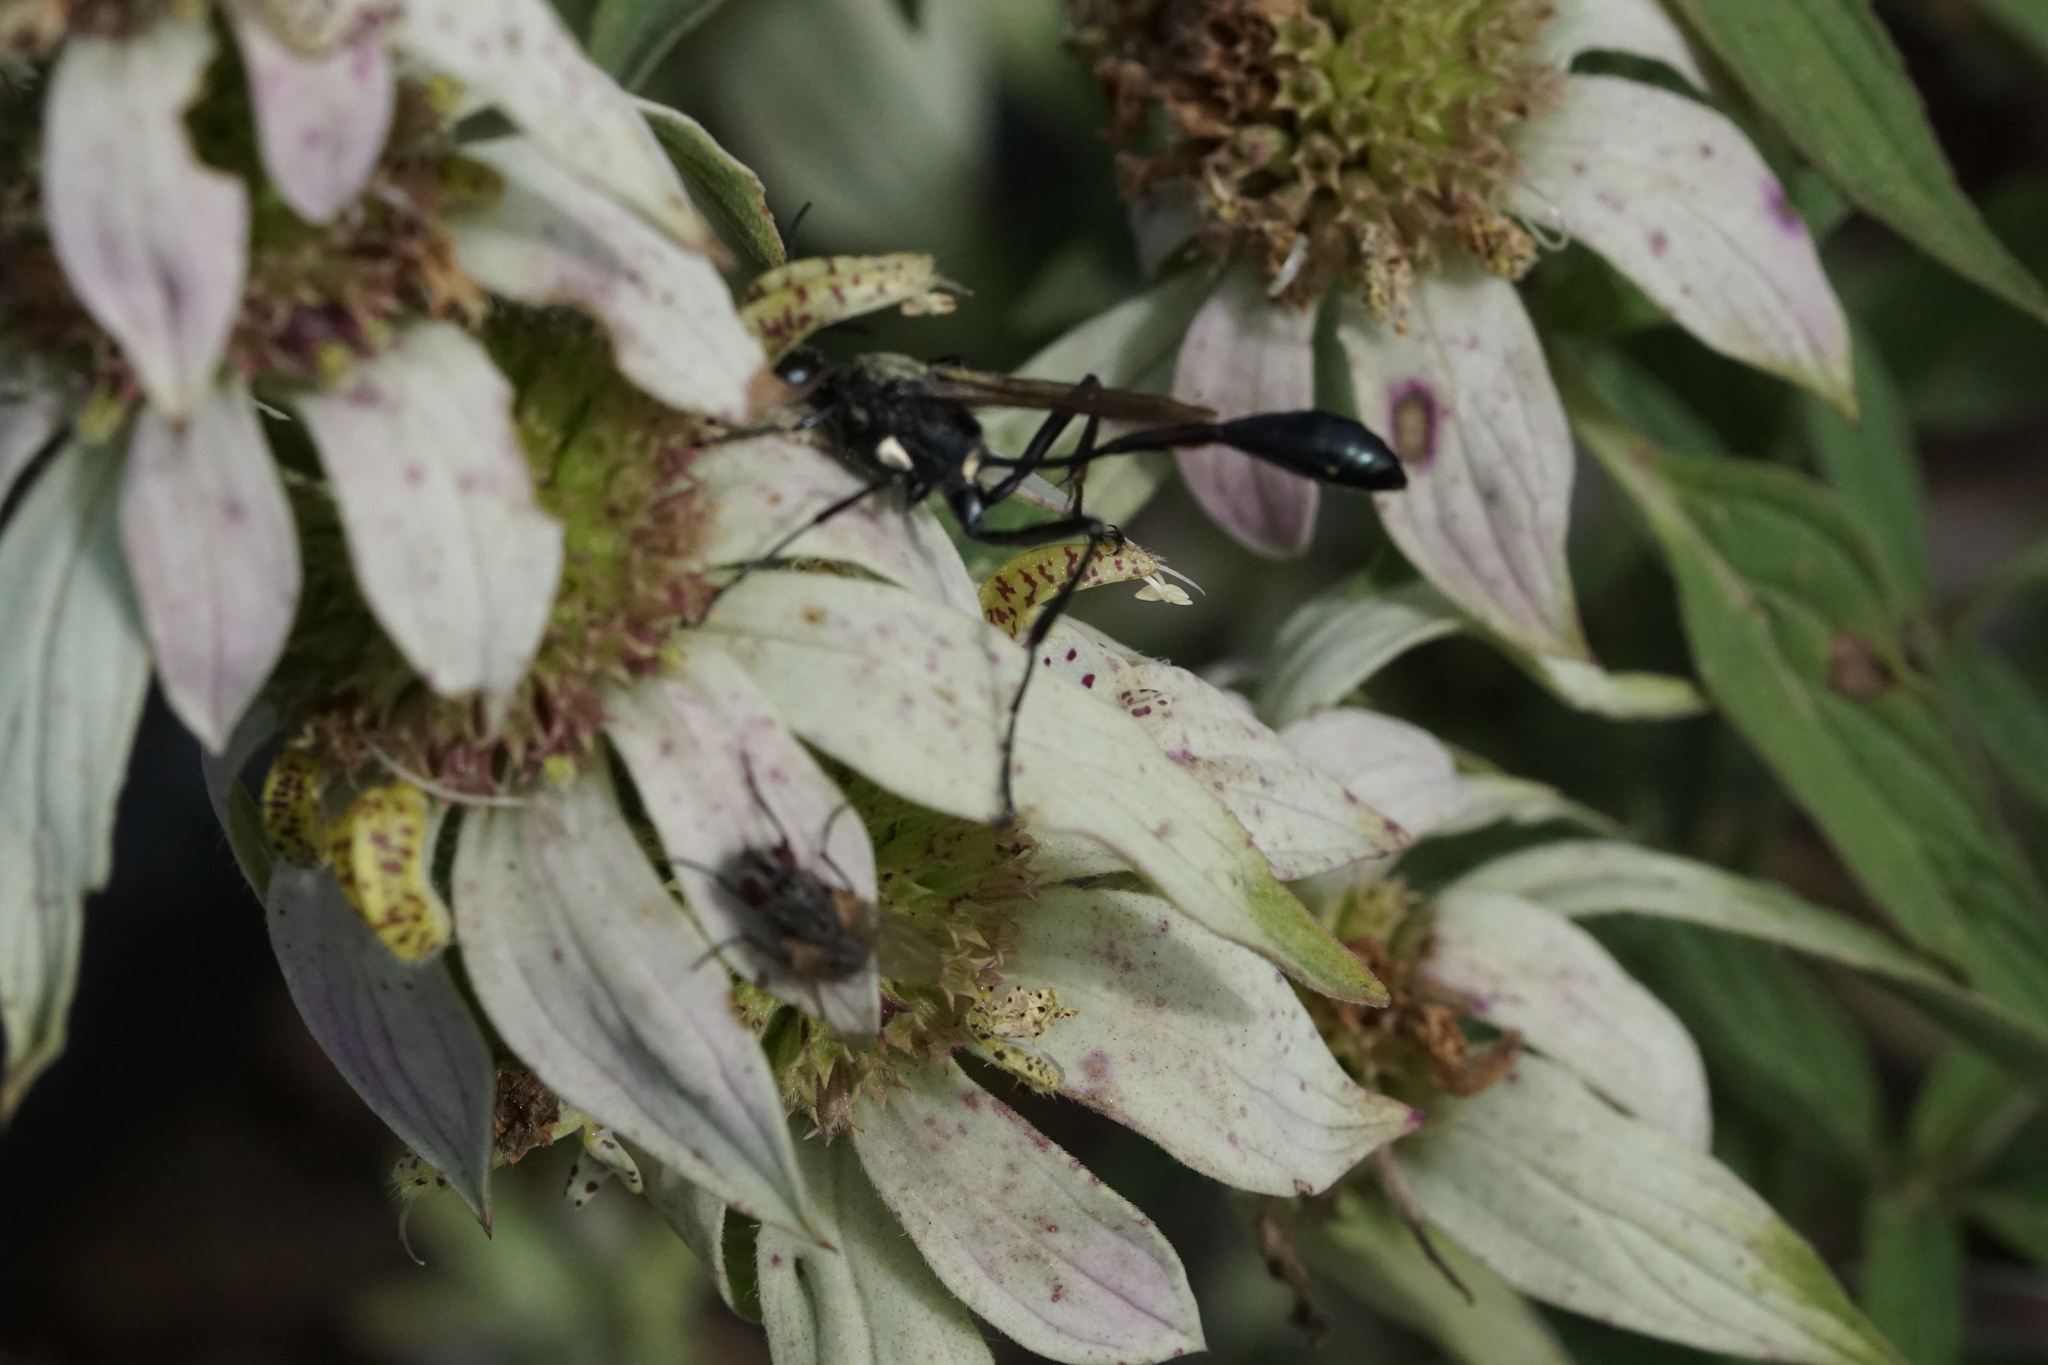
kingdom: Animalia
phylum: Arthropoda
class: Insecta
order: Hymenoptera
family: Sphecidae
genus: Eremnophila
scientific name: Eremnophila aureonotata
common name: Gold-marked thread-waisted wasp
